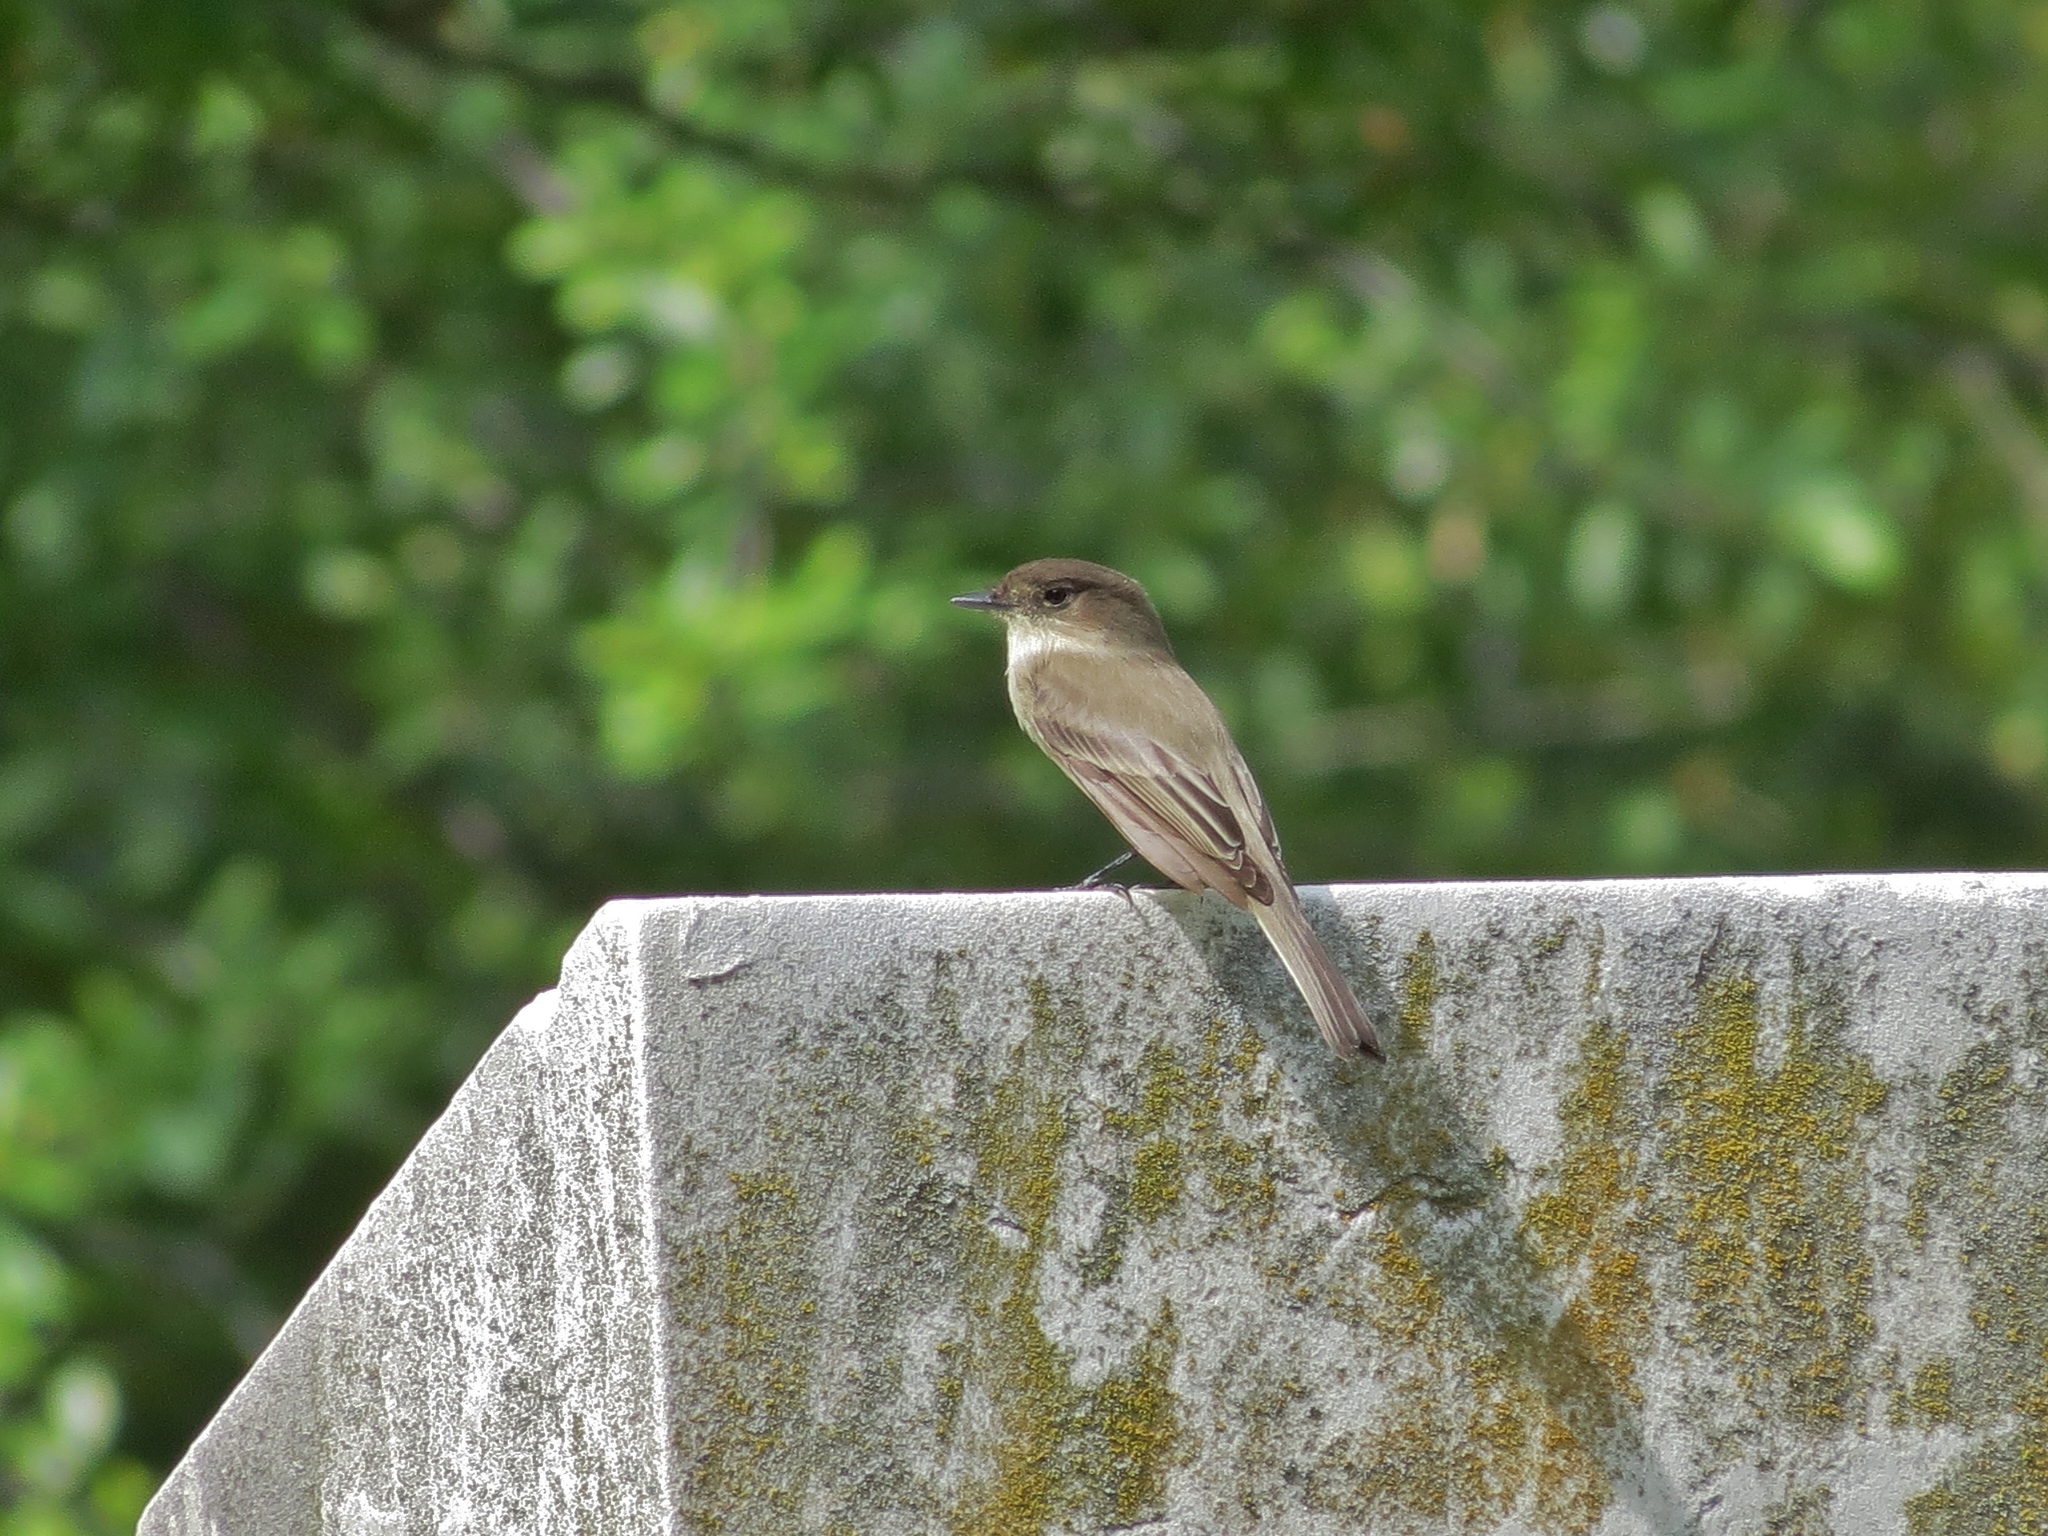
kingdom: Animalia
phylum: Chordata
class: Aves
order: Passeriformes
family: Tyrannidae
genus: Sayornis
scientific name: Sayornis phoebe
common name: Eastern phoebe
